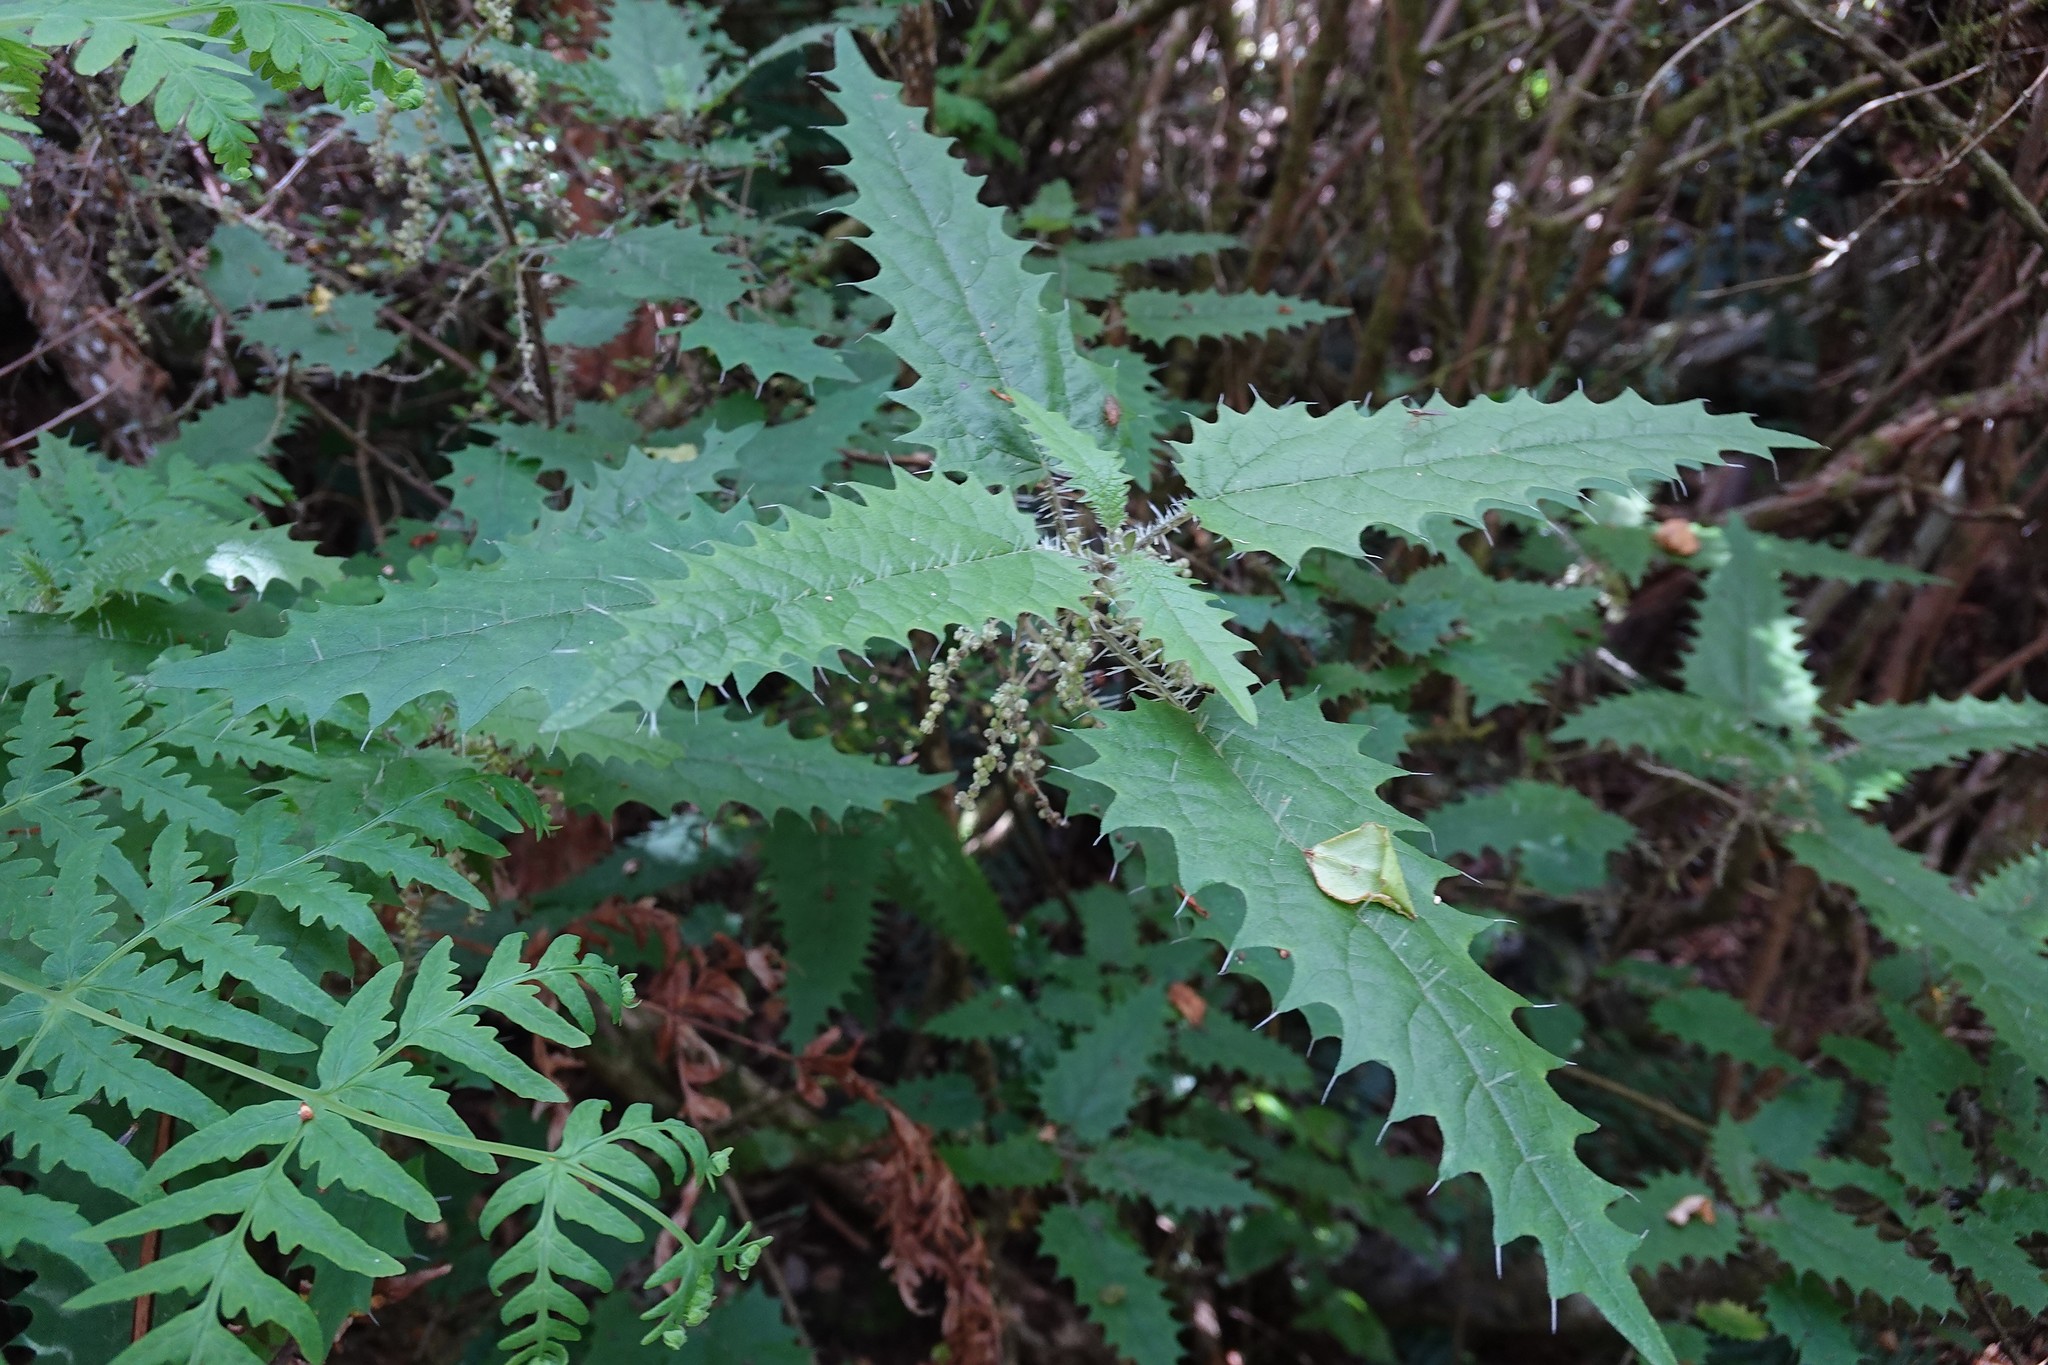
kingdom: Plantae
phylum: Tracheophyta
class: Magnoliopsida
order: Rosales
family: Urticaceae
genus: Urtica
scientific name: Urtica ferox
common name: Tree nettle
